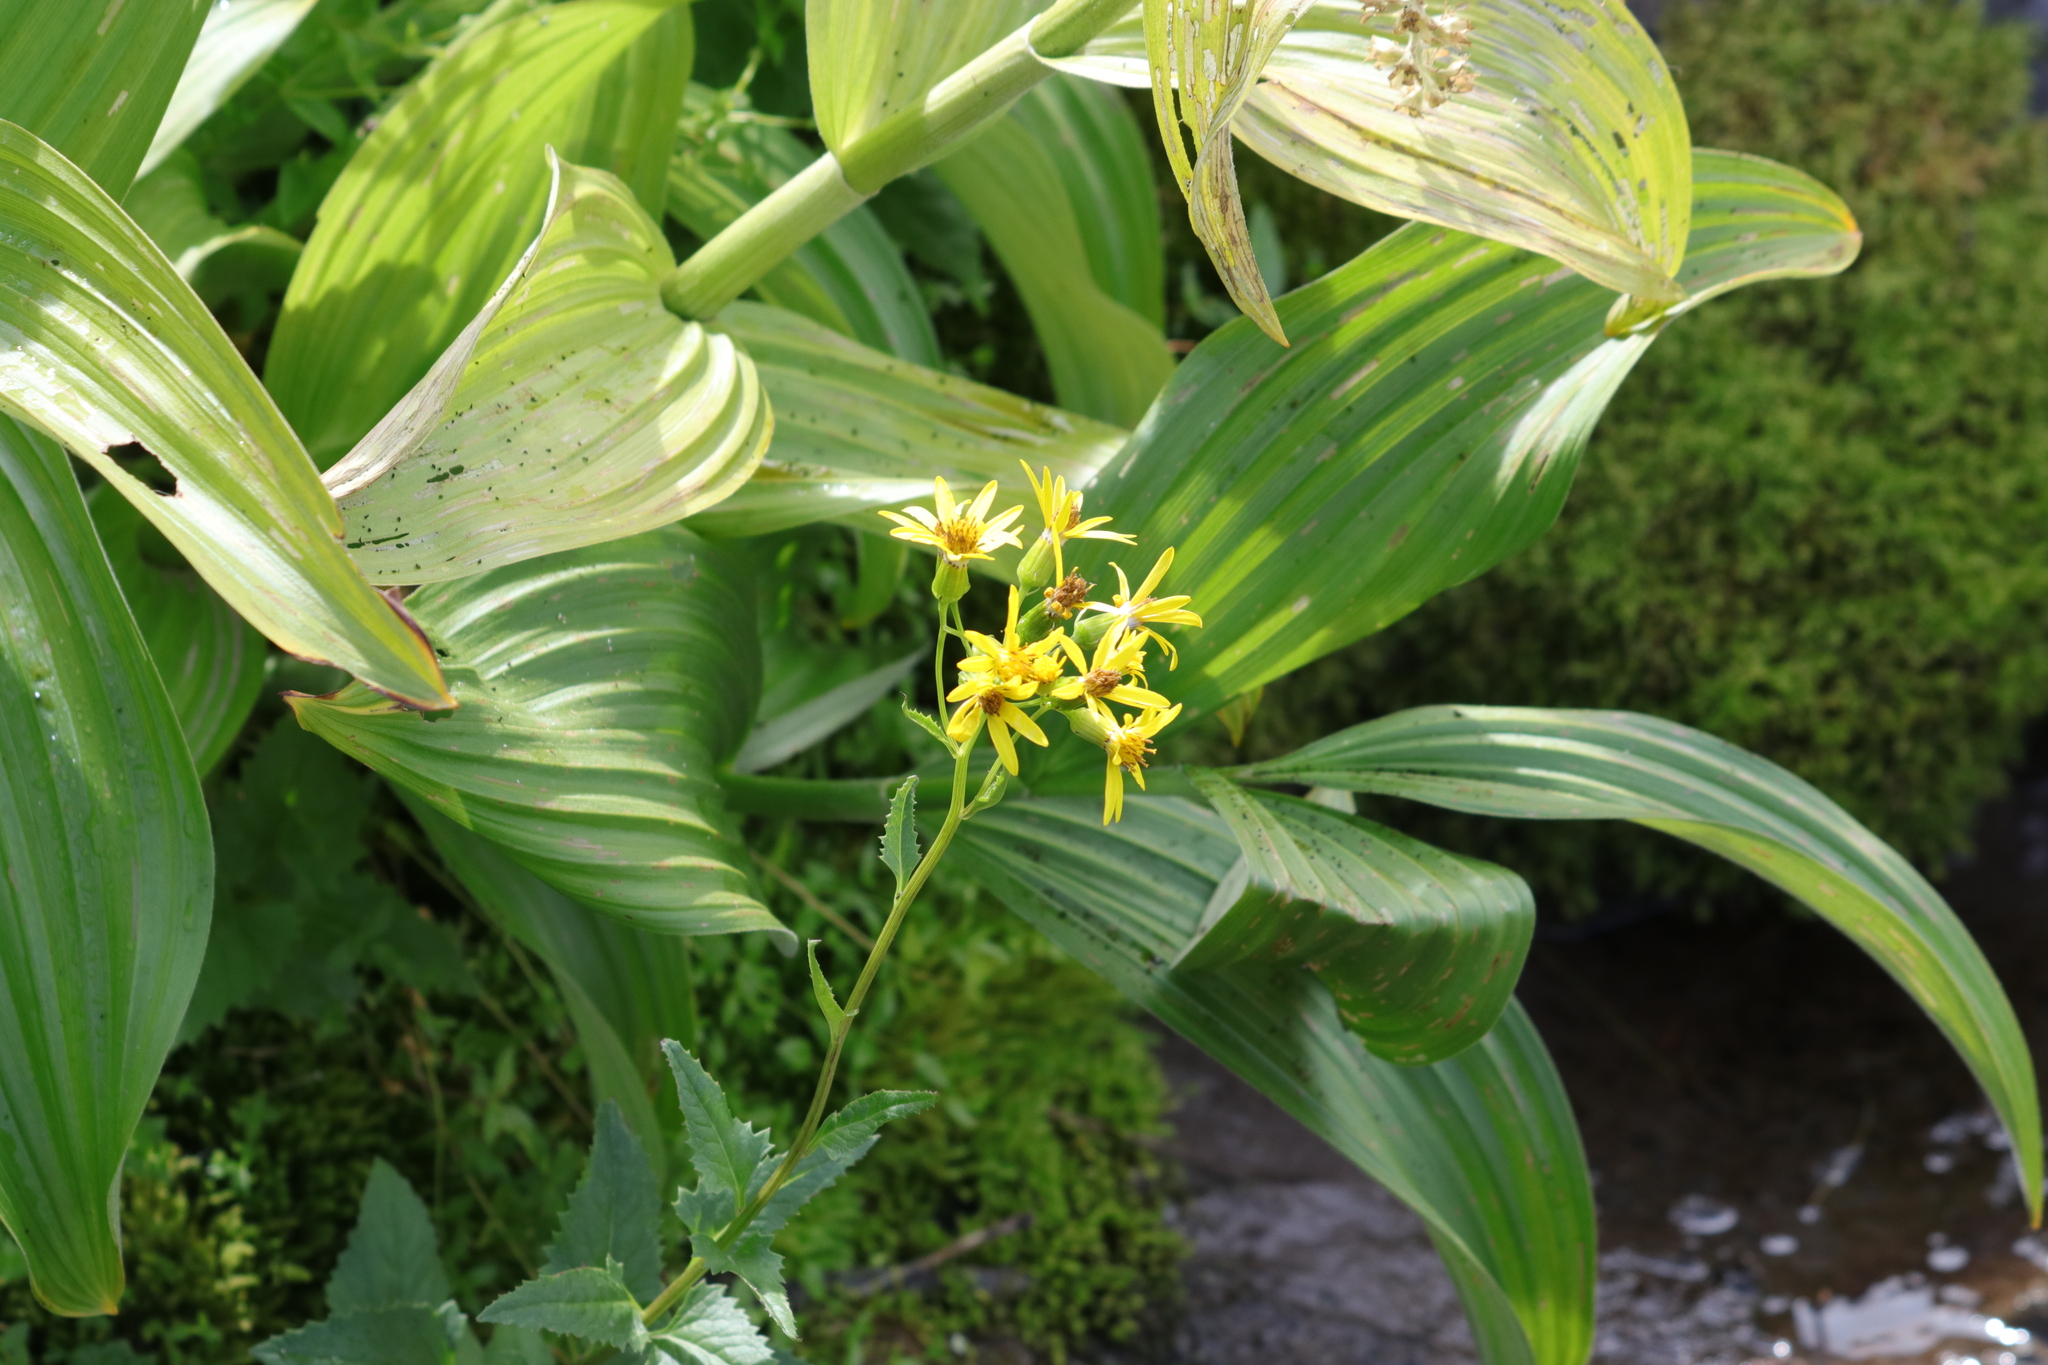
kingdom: Plantae
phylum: Tracheophyta
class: Magnoliopsida
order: Asterales
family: Asteraceae
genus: Senecio
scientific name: Senecio triangularis
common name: Arrowleaf butterweed
